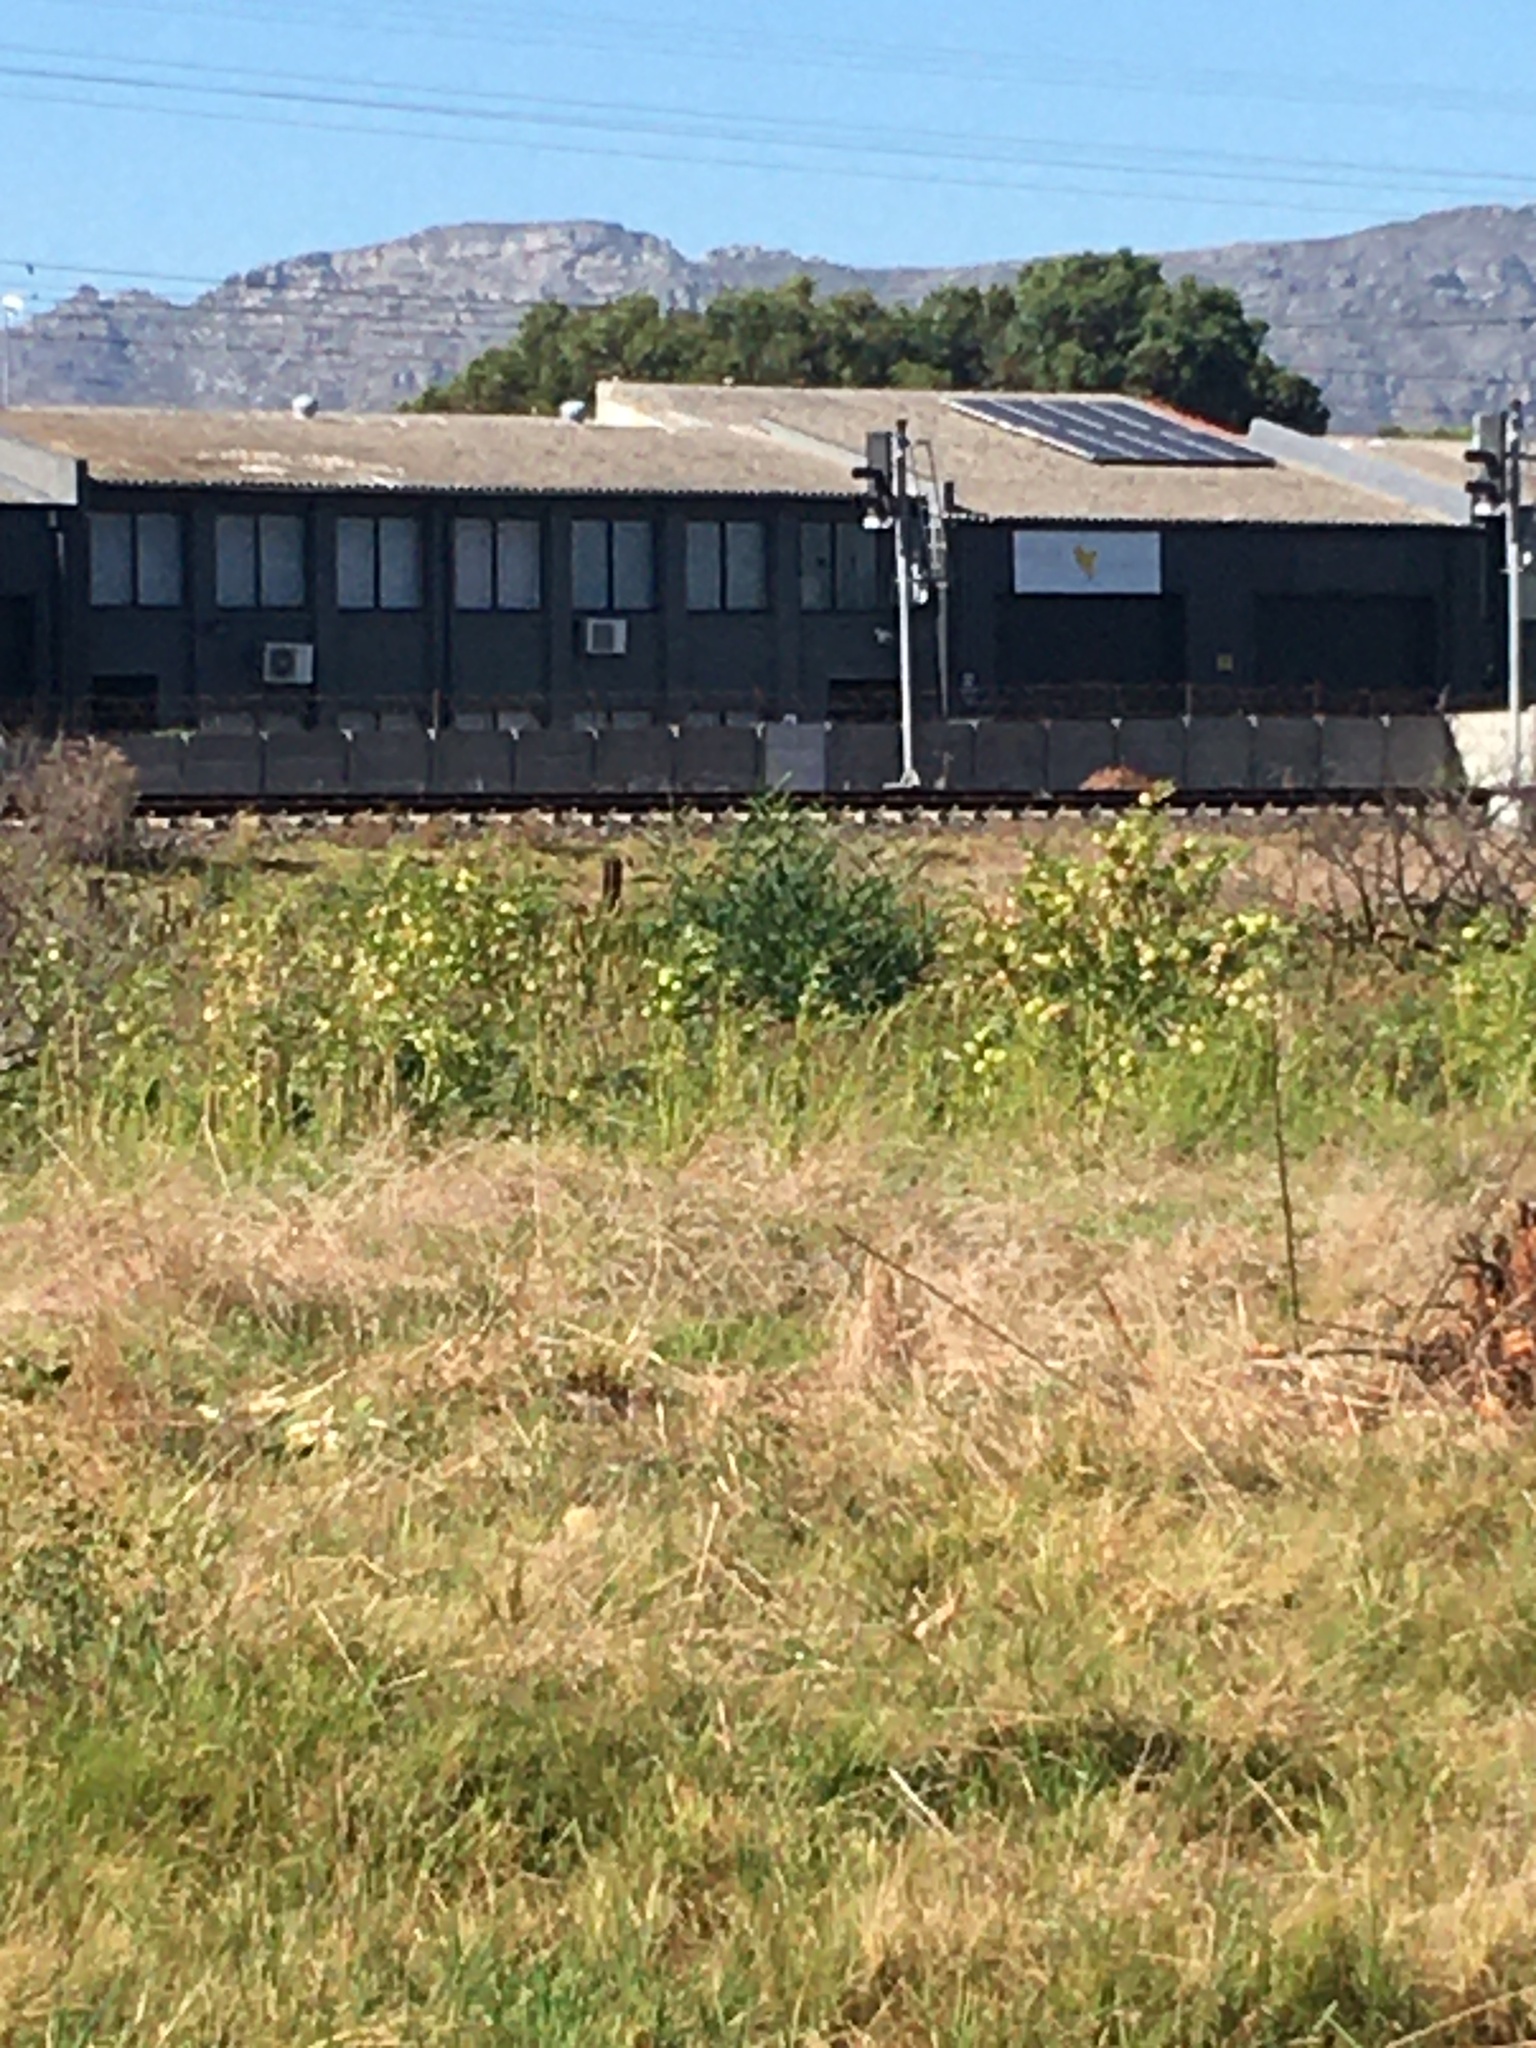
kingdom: Plantae
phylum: Tracheophyta
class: Magnoliopsida
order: Fabales
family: Fabaceae
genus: Acacia
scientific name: Acacia saligna
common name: Orange wattle
